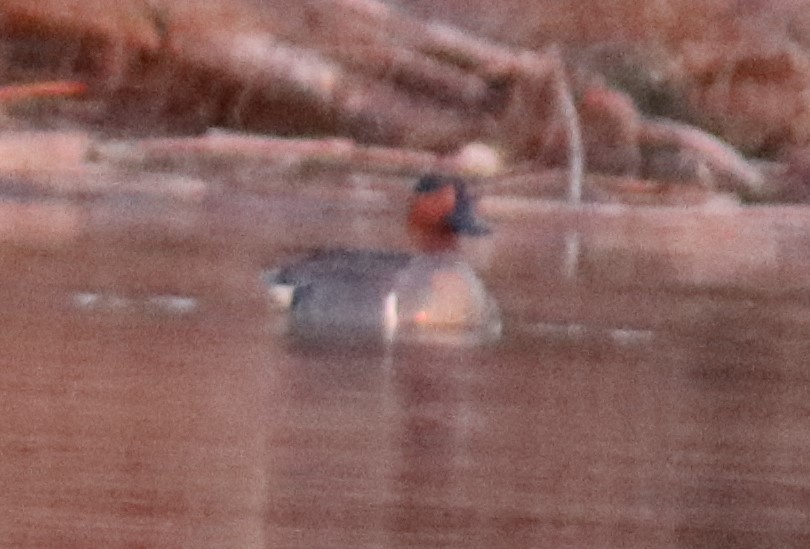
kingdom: Animalia
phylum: Chordata
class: Aves
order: Anseriformes
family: Anatidae
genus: Anas
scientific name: Anas crecca
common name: Eurasian teal
